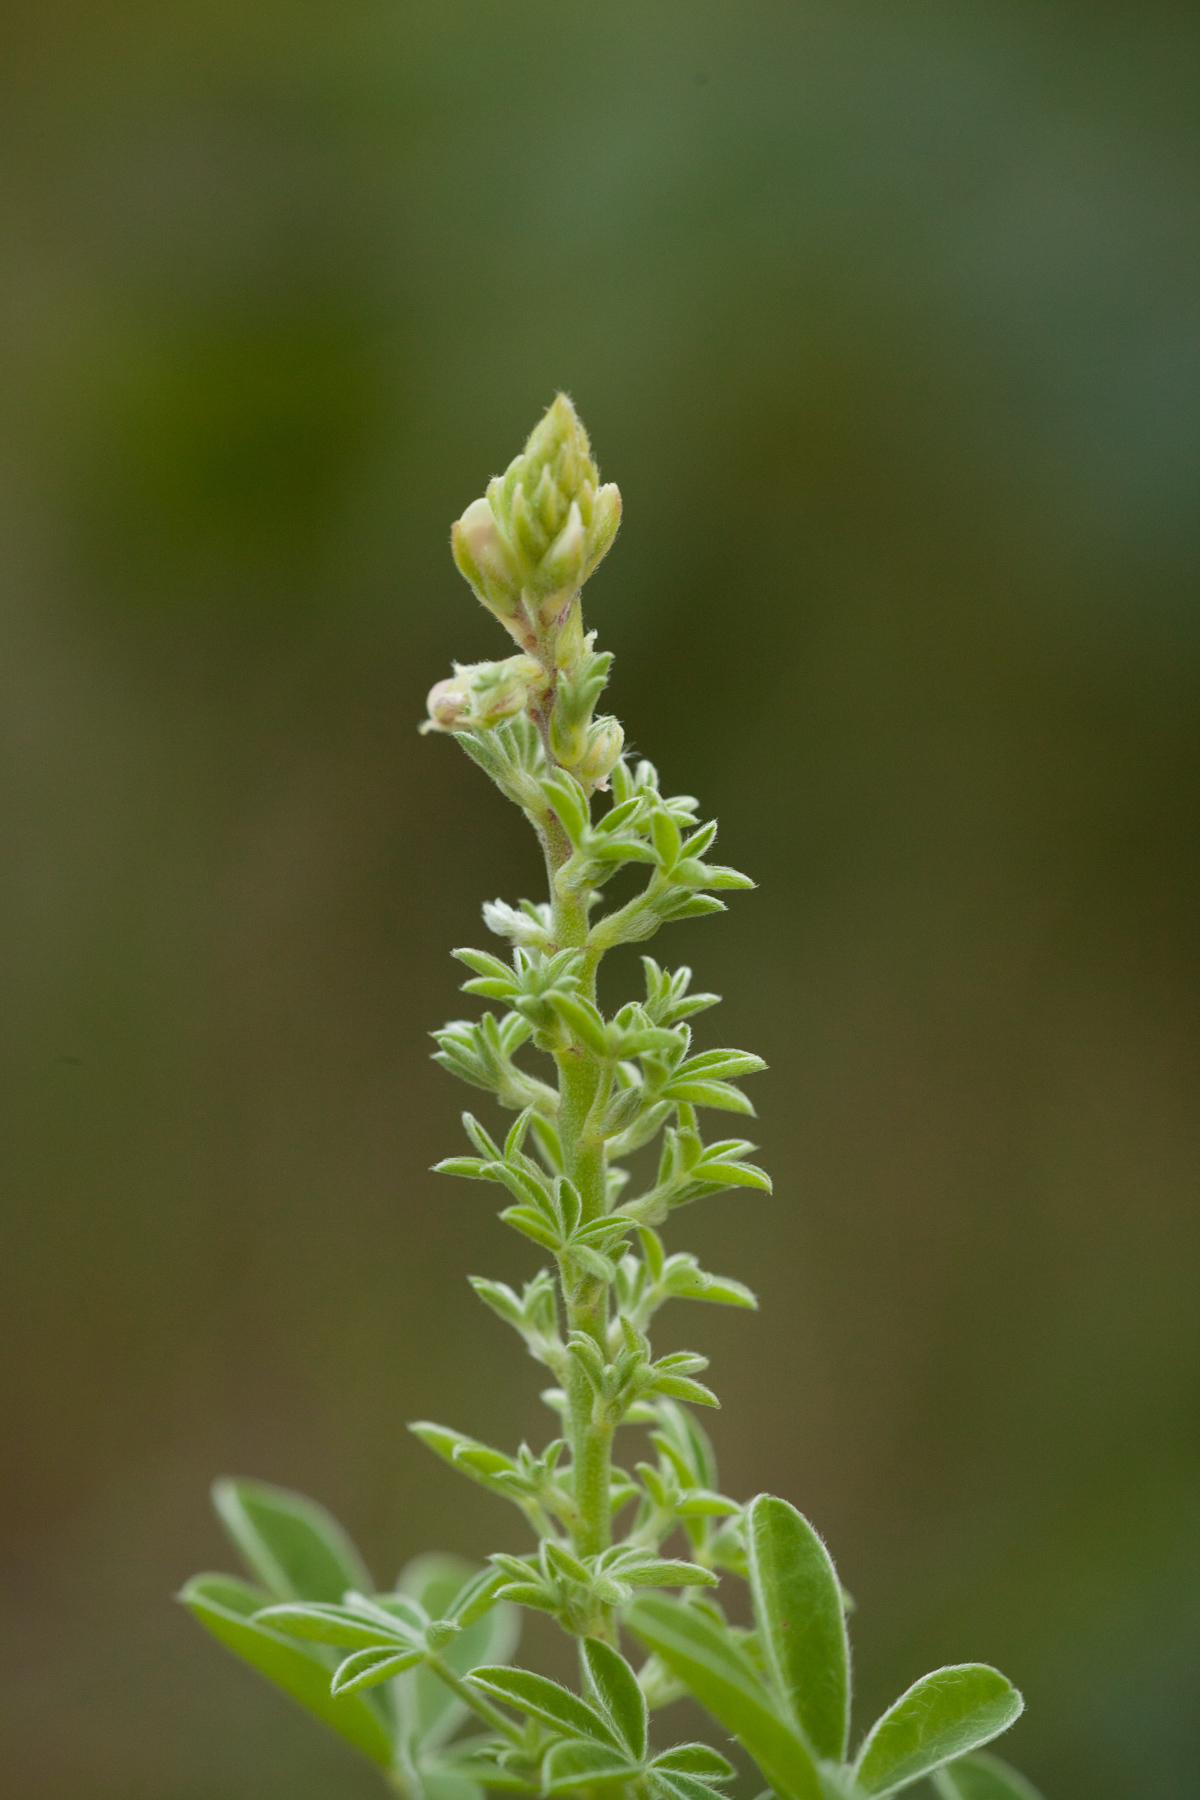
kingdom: Plantae
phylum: Tracheophyta
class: Magnoliopsida
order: Fabales
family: Fabaceae
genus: Lupinus
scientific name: Lupinus texensis
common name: Texas bluebonnet
